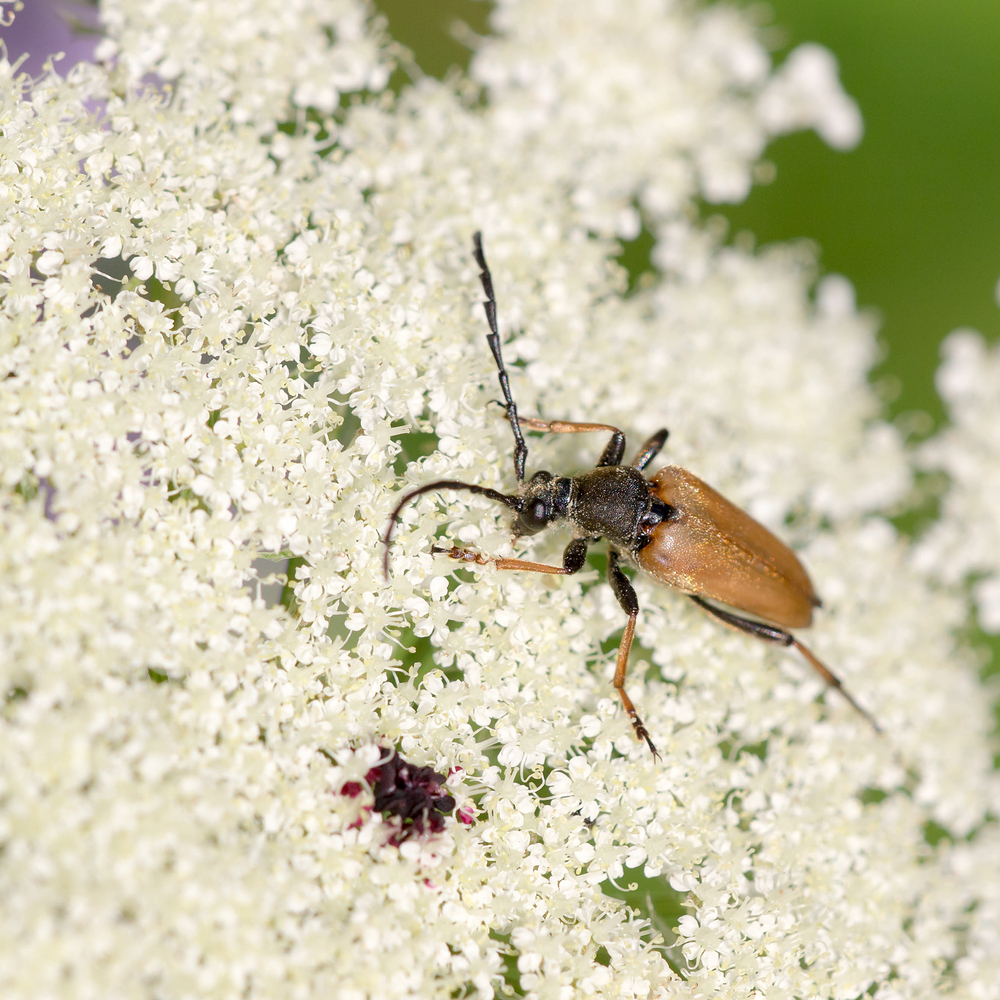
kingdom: Animalia
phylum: Arthropoda
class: Insecta
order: Coleoptera
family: Cerambycidae
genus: Stictoleptura
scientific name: Stictoleptura rubra
